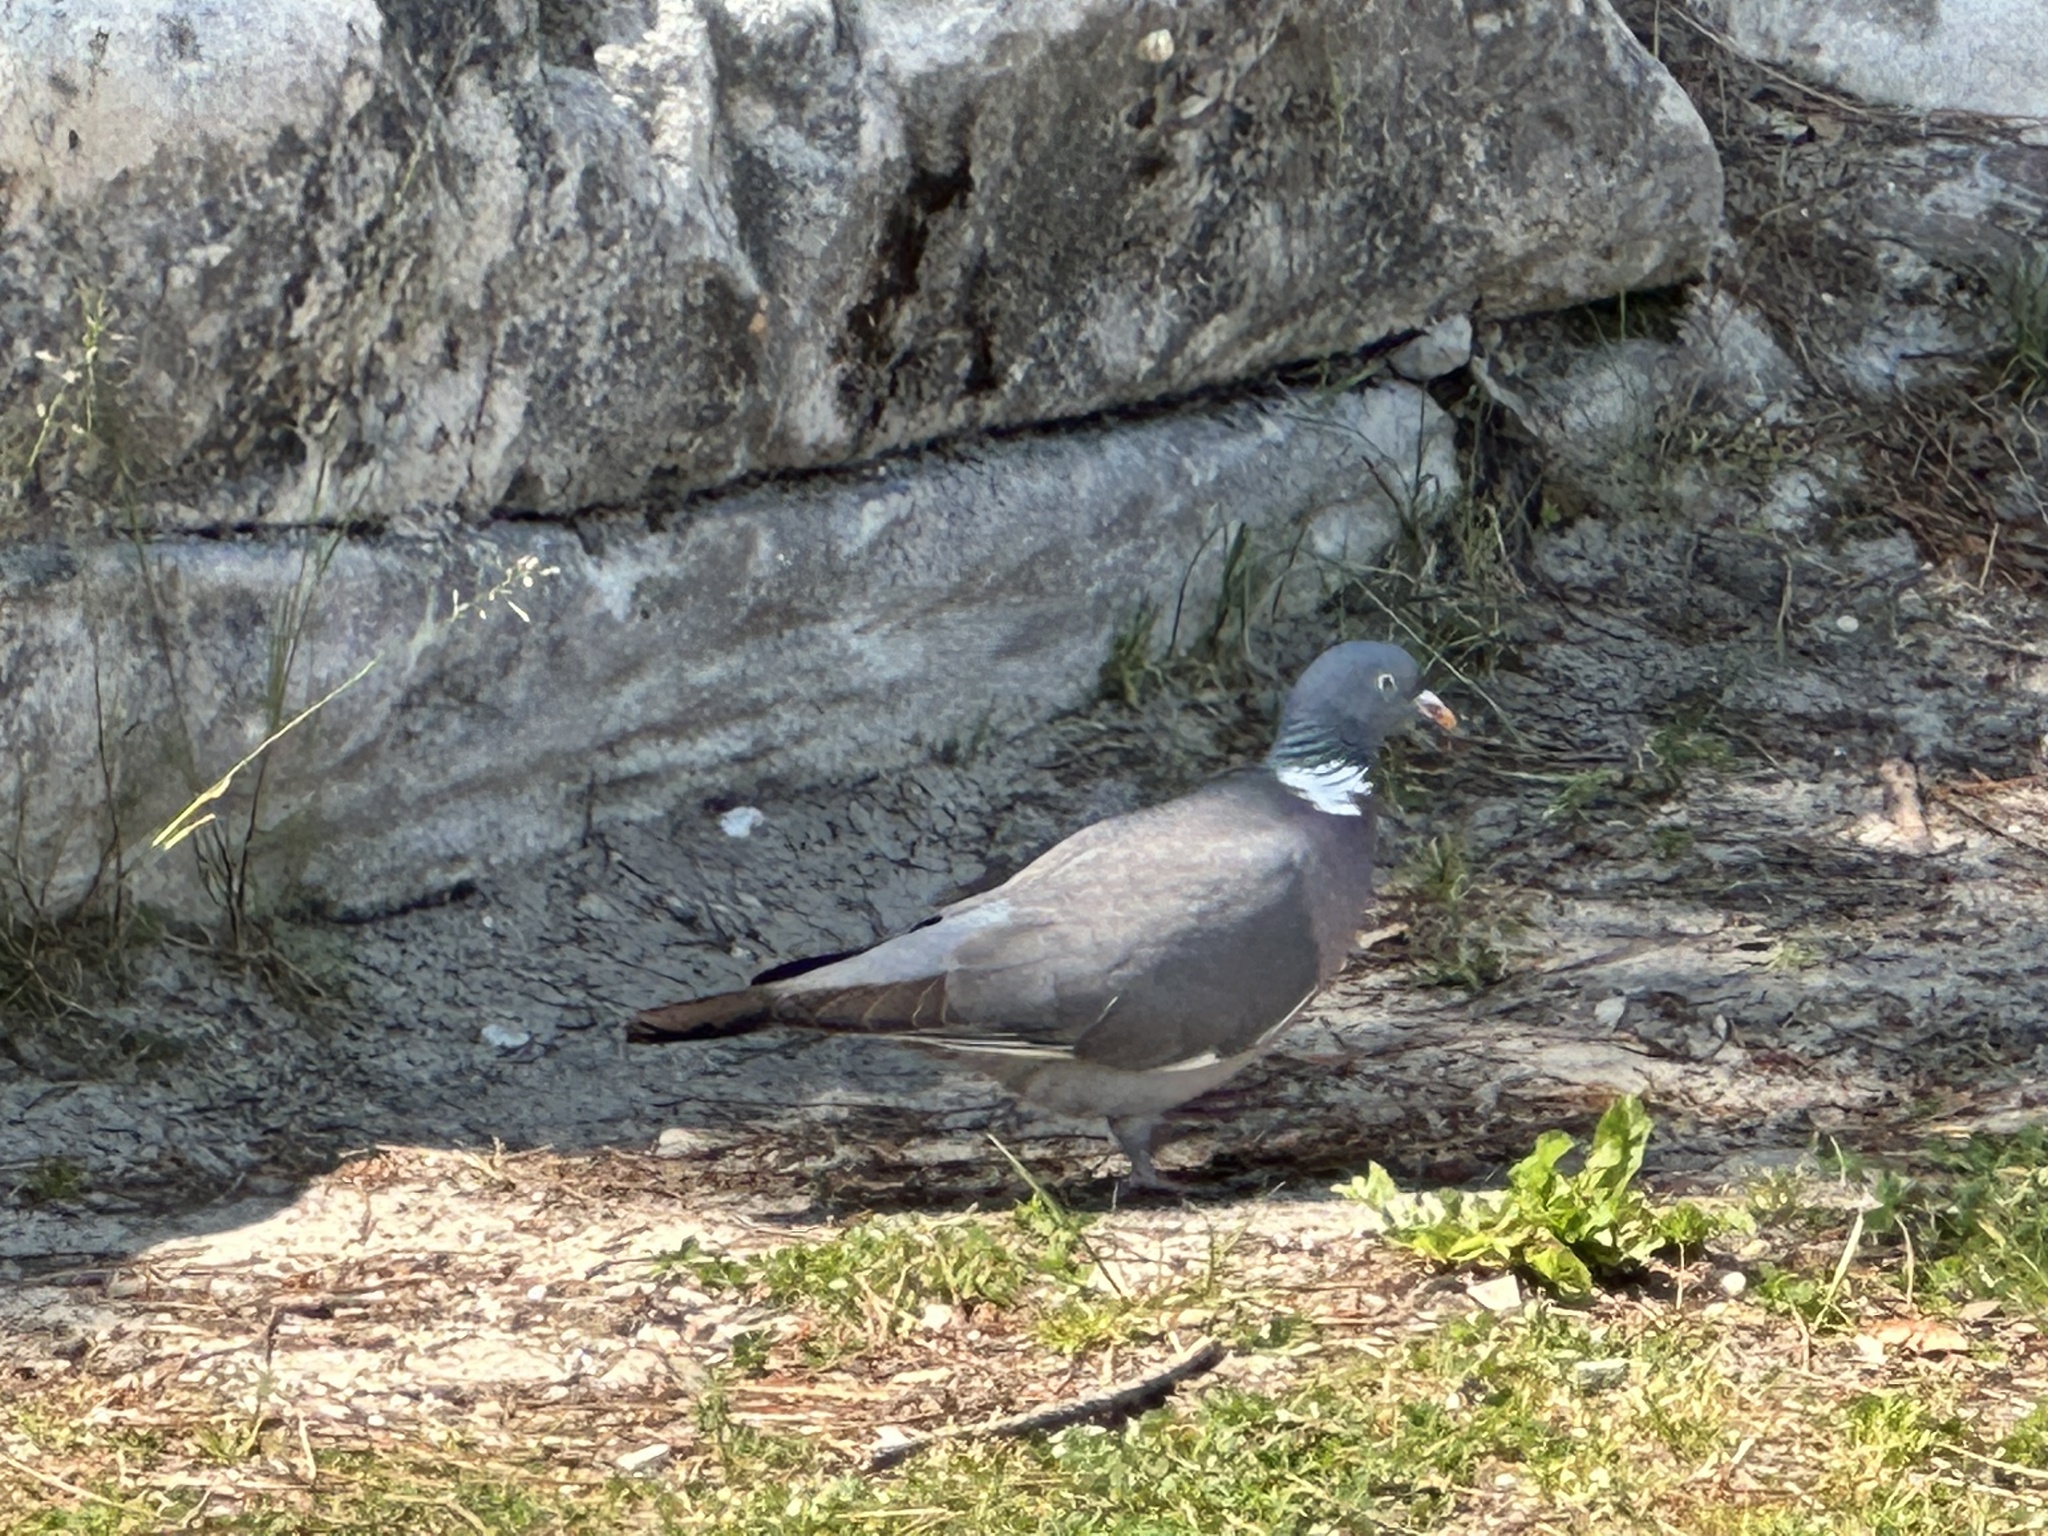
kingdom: Animalia
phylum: Chordata
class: Aves
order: Columbiformes
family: Columbidae
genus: Columba
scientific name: Columba palumbus
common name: Common wood pigeon
